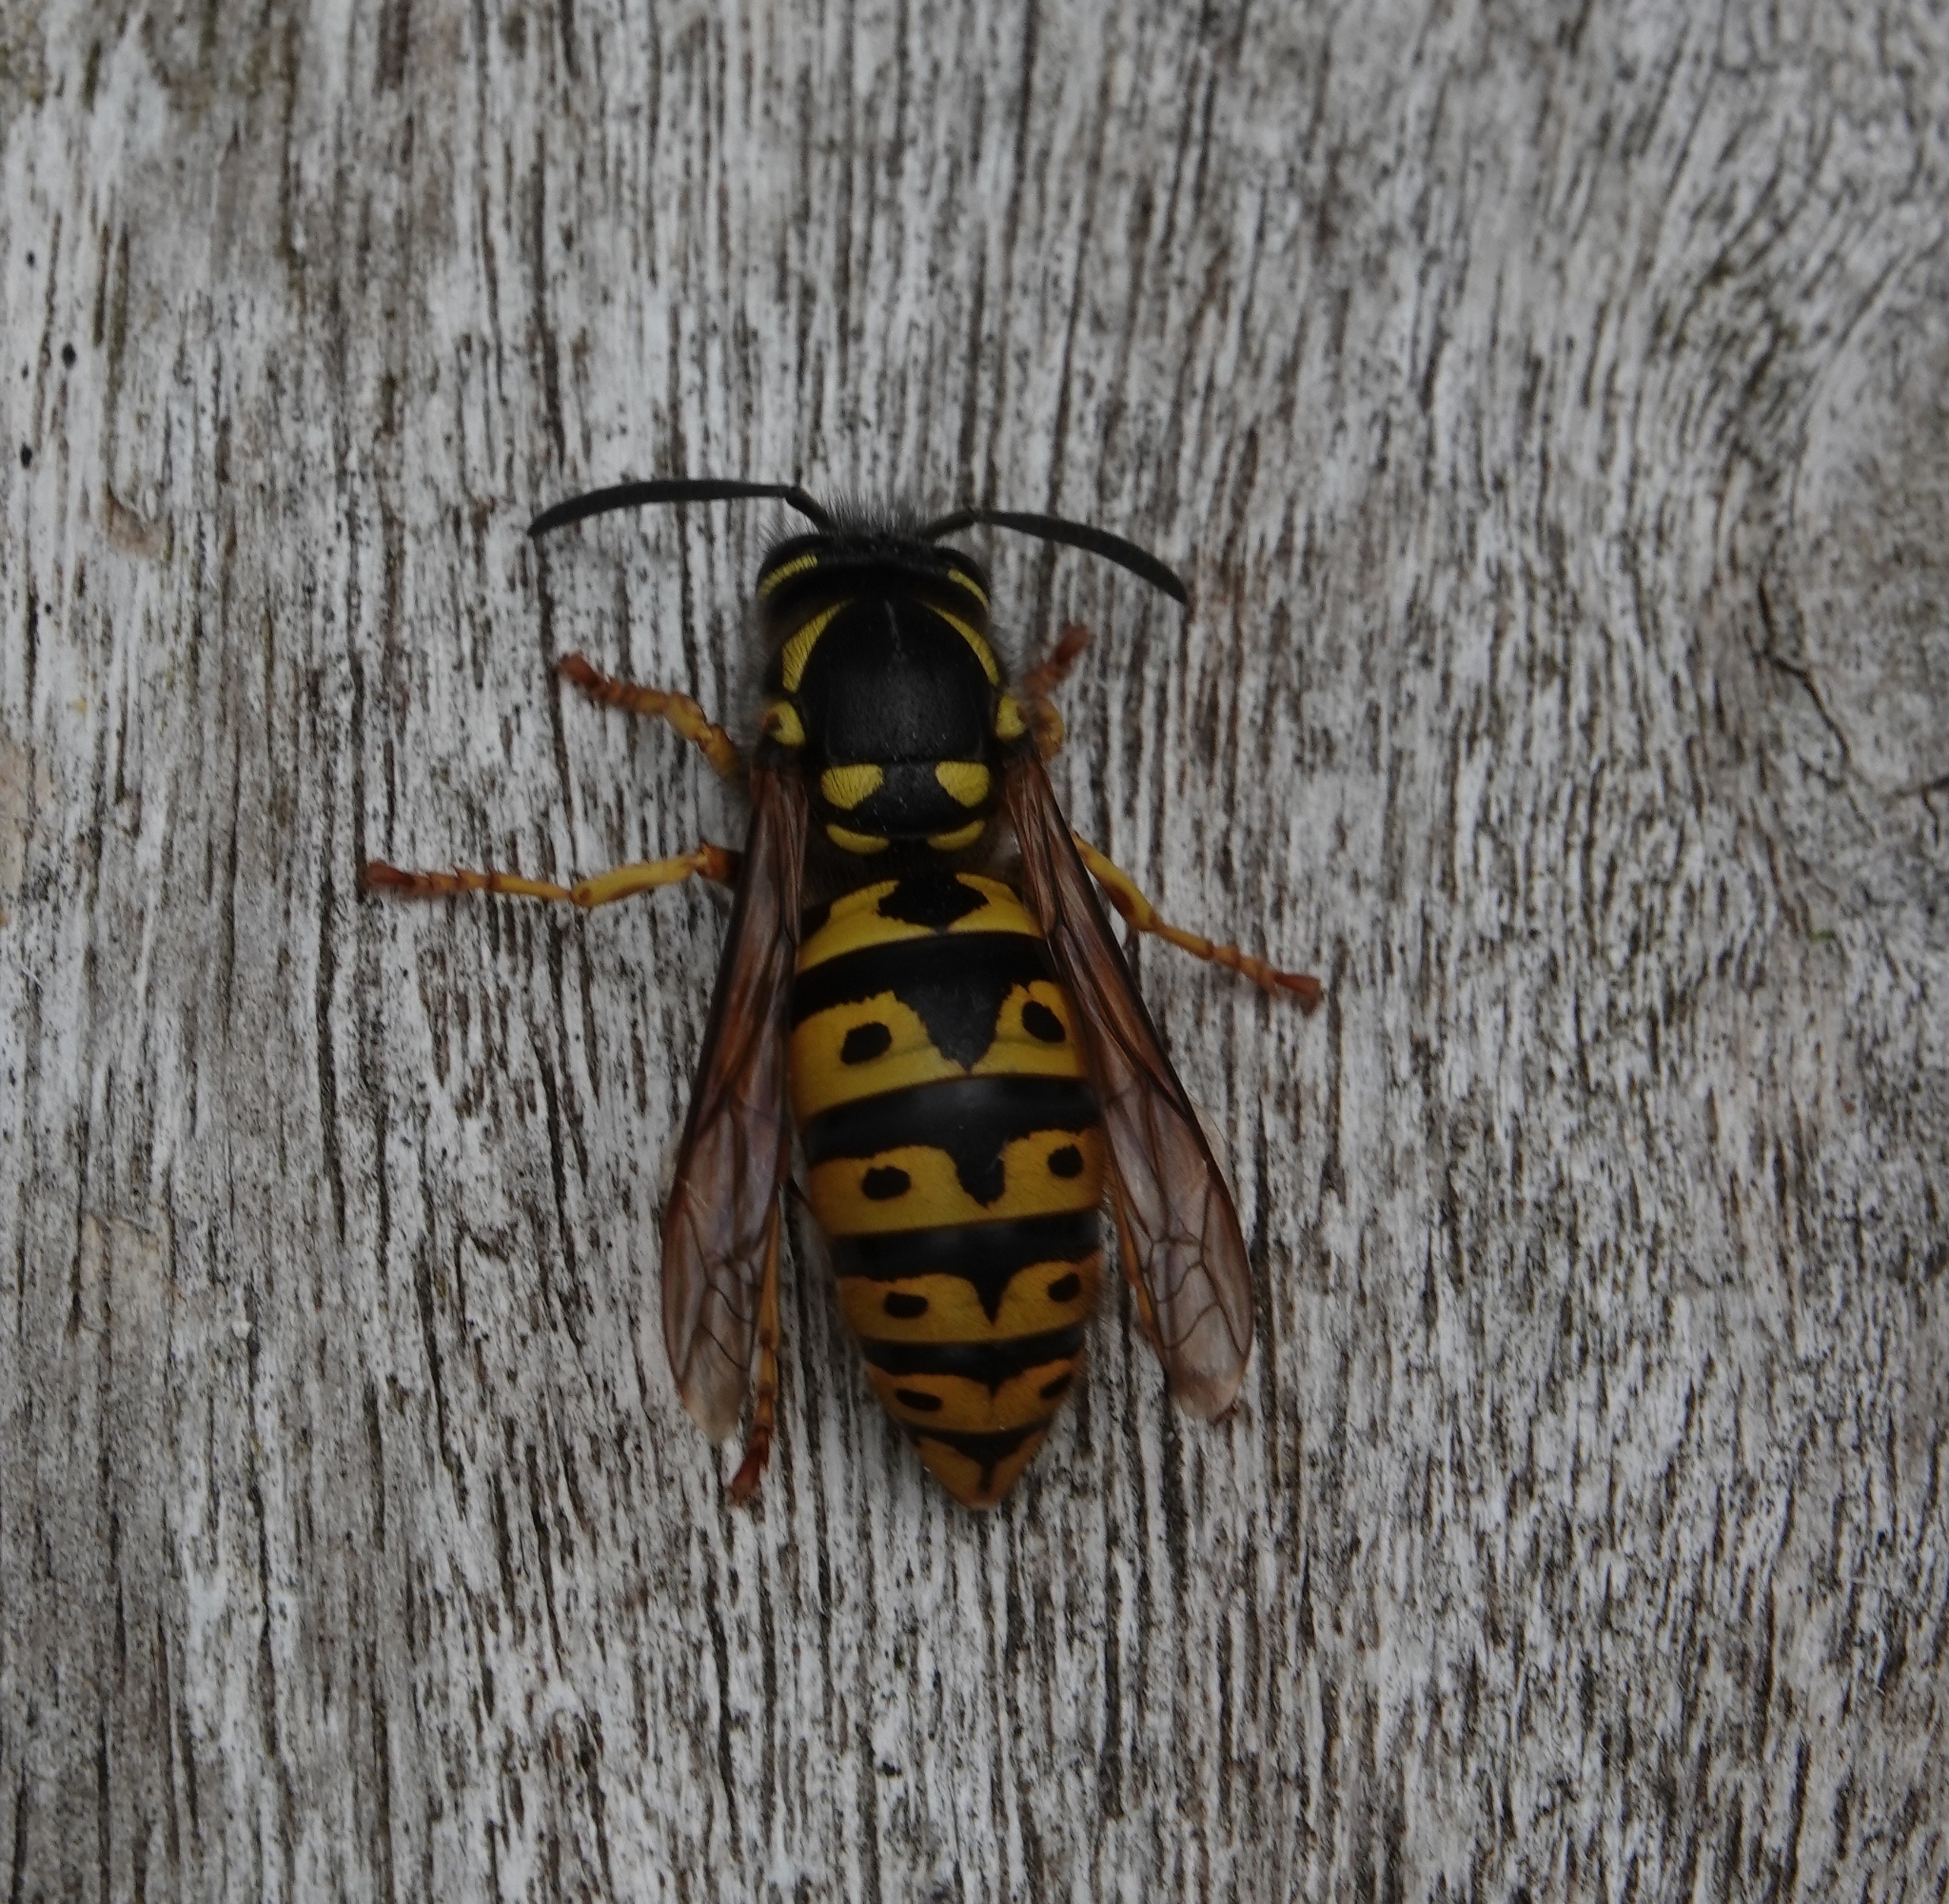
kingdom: Animalia
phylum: Arthropoda
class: Insecta
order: Hymenoptera
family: Vespidae
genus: Vespula
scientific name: Vespula germanica
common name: German wasp
